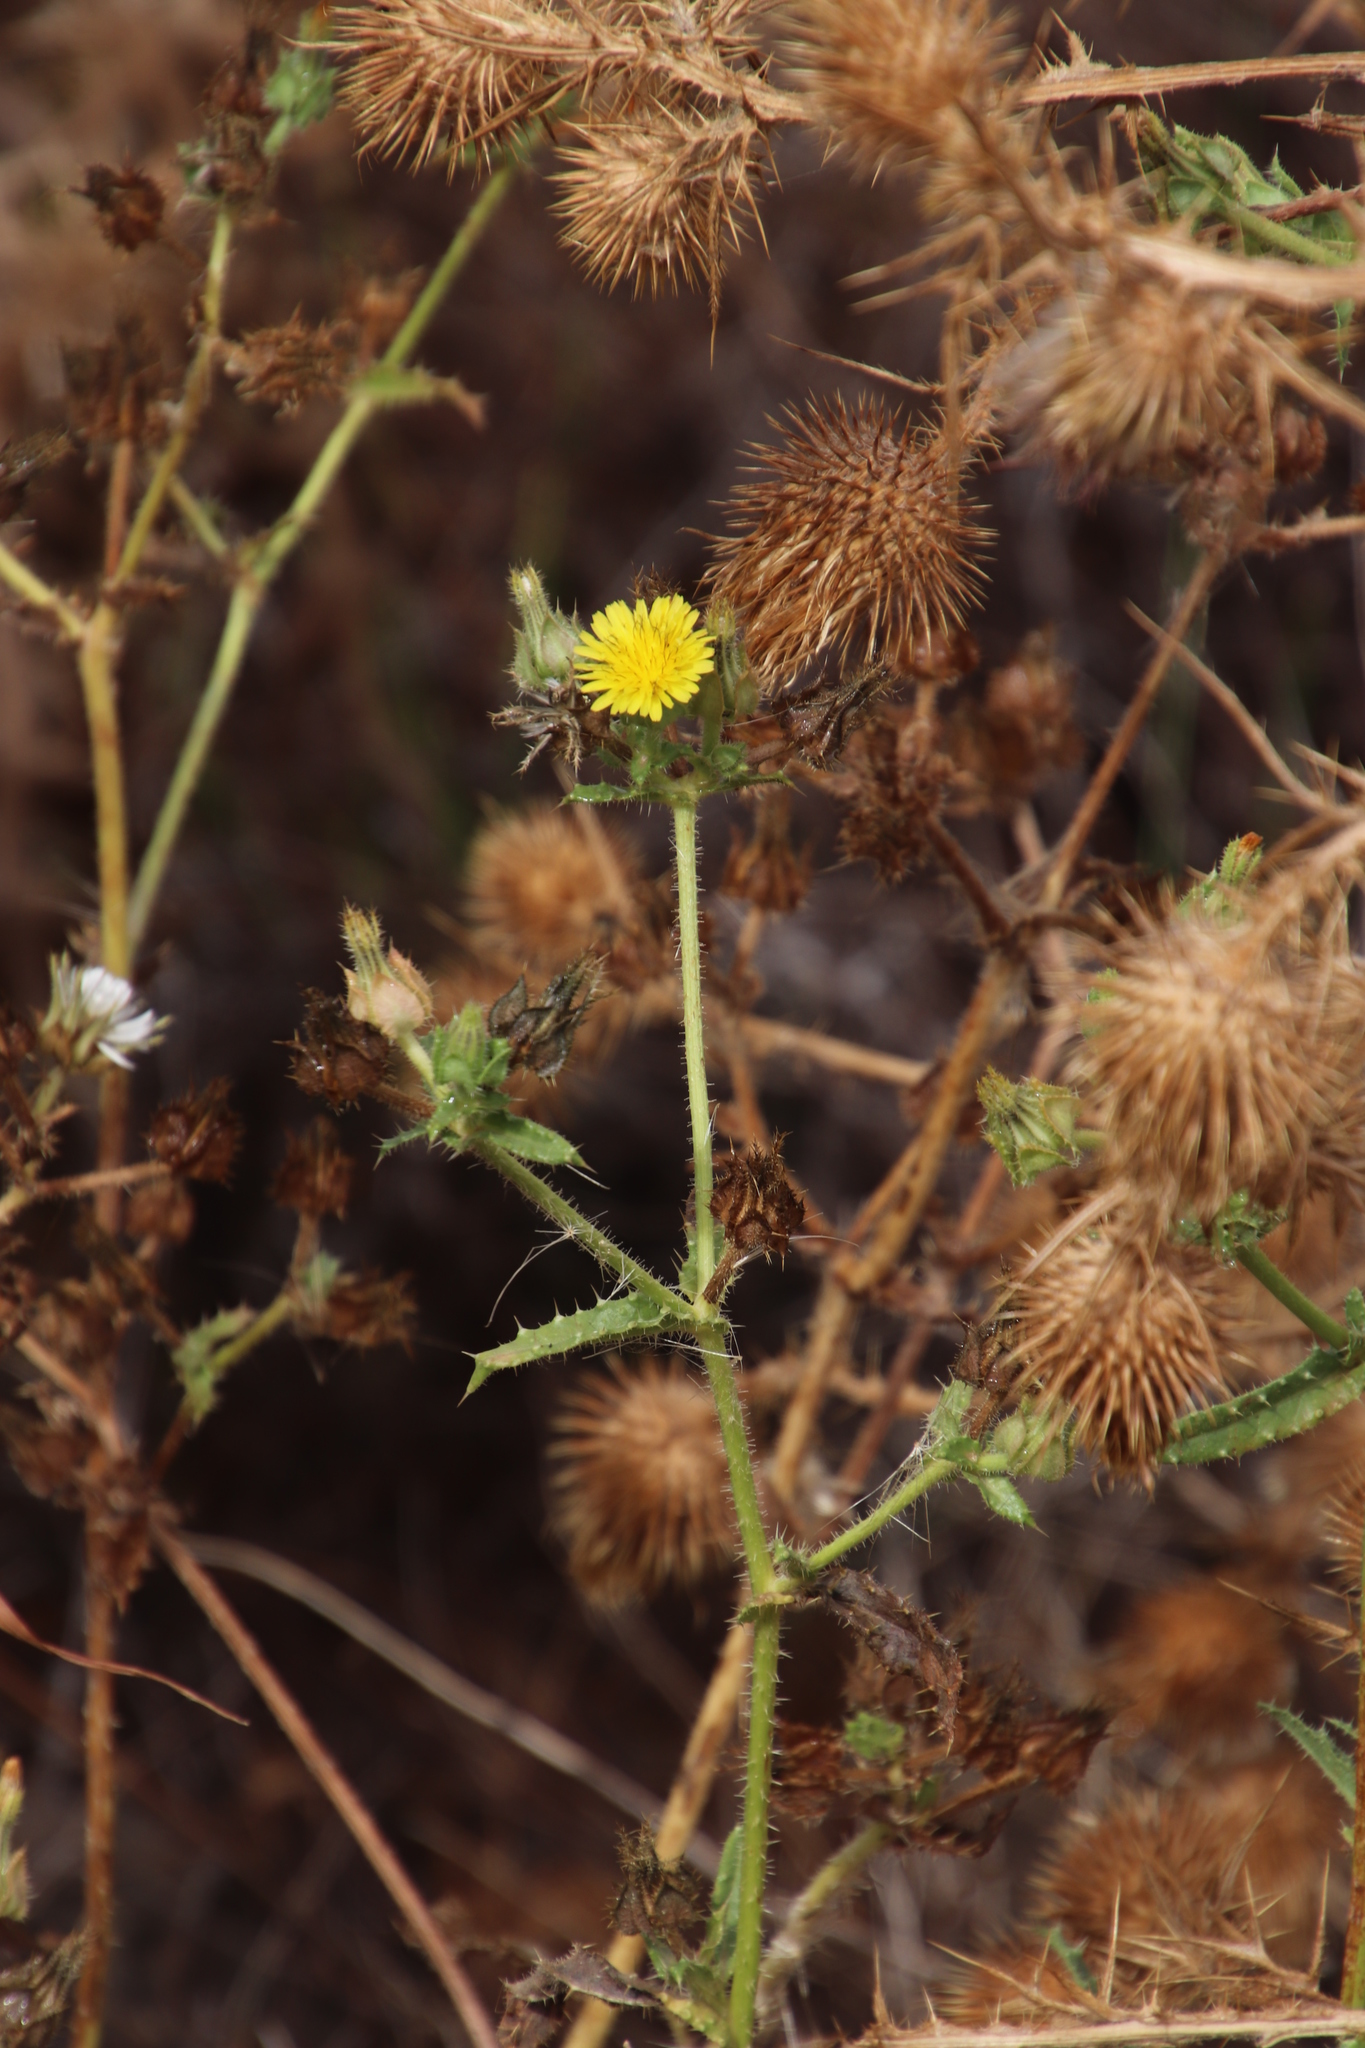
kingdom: Plantae
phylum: Tracheophyta
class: Magnoliopsida
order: Asterales
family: Asteraceae
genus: Helminthotheca
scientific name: Helminthotheca echioides
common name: Ox-tongue
